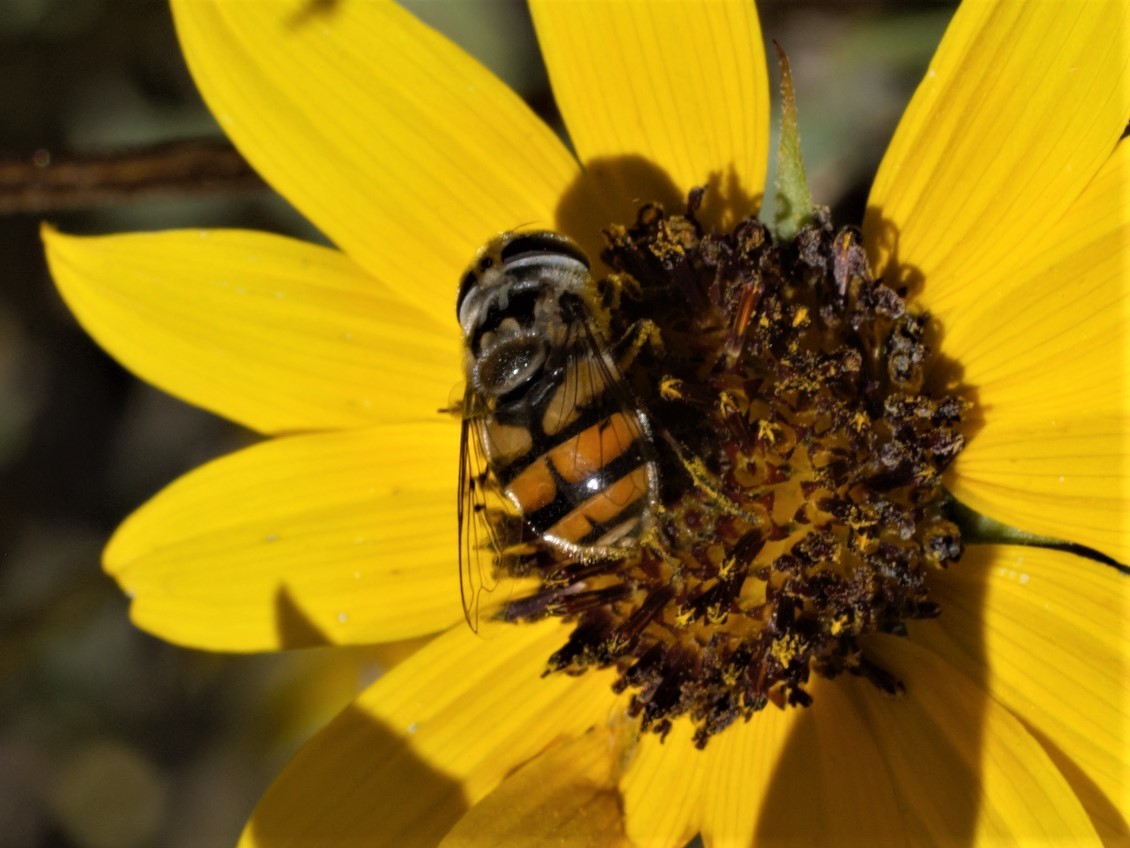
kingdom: Animalia
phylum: Arthropoda
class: Insecta
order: Diptera
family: Syrphidae
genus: Copestylum
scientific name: Copestylum avidum
